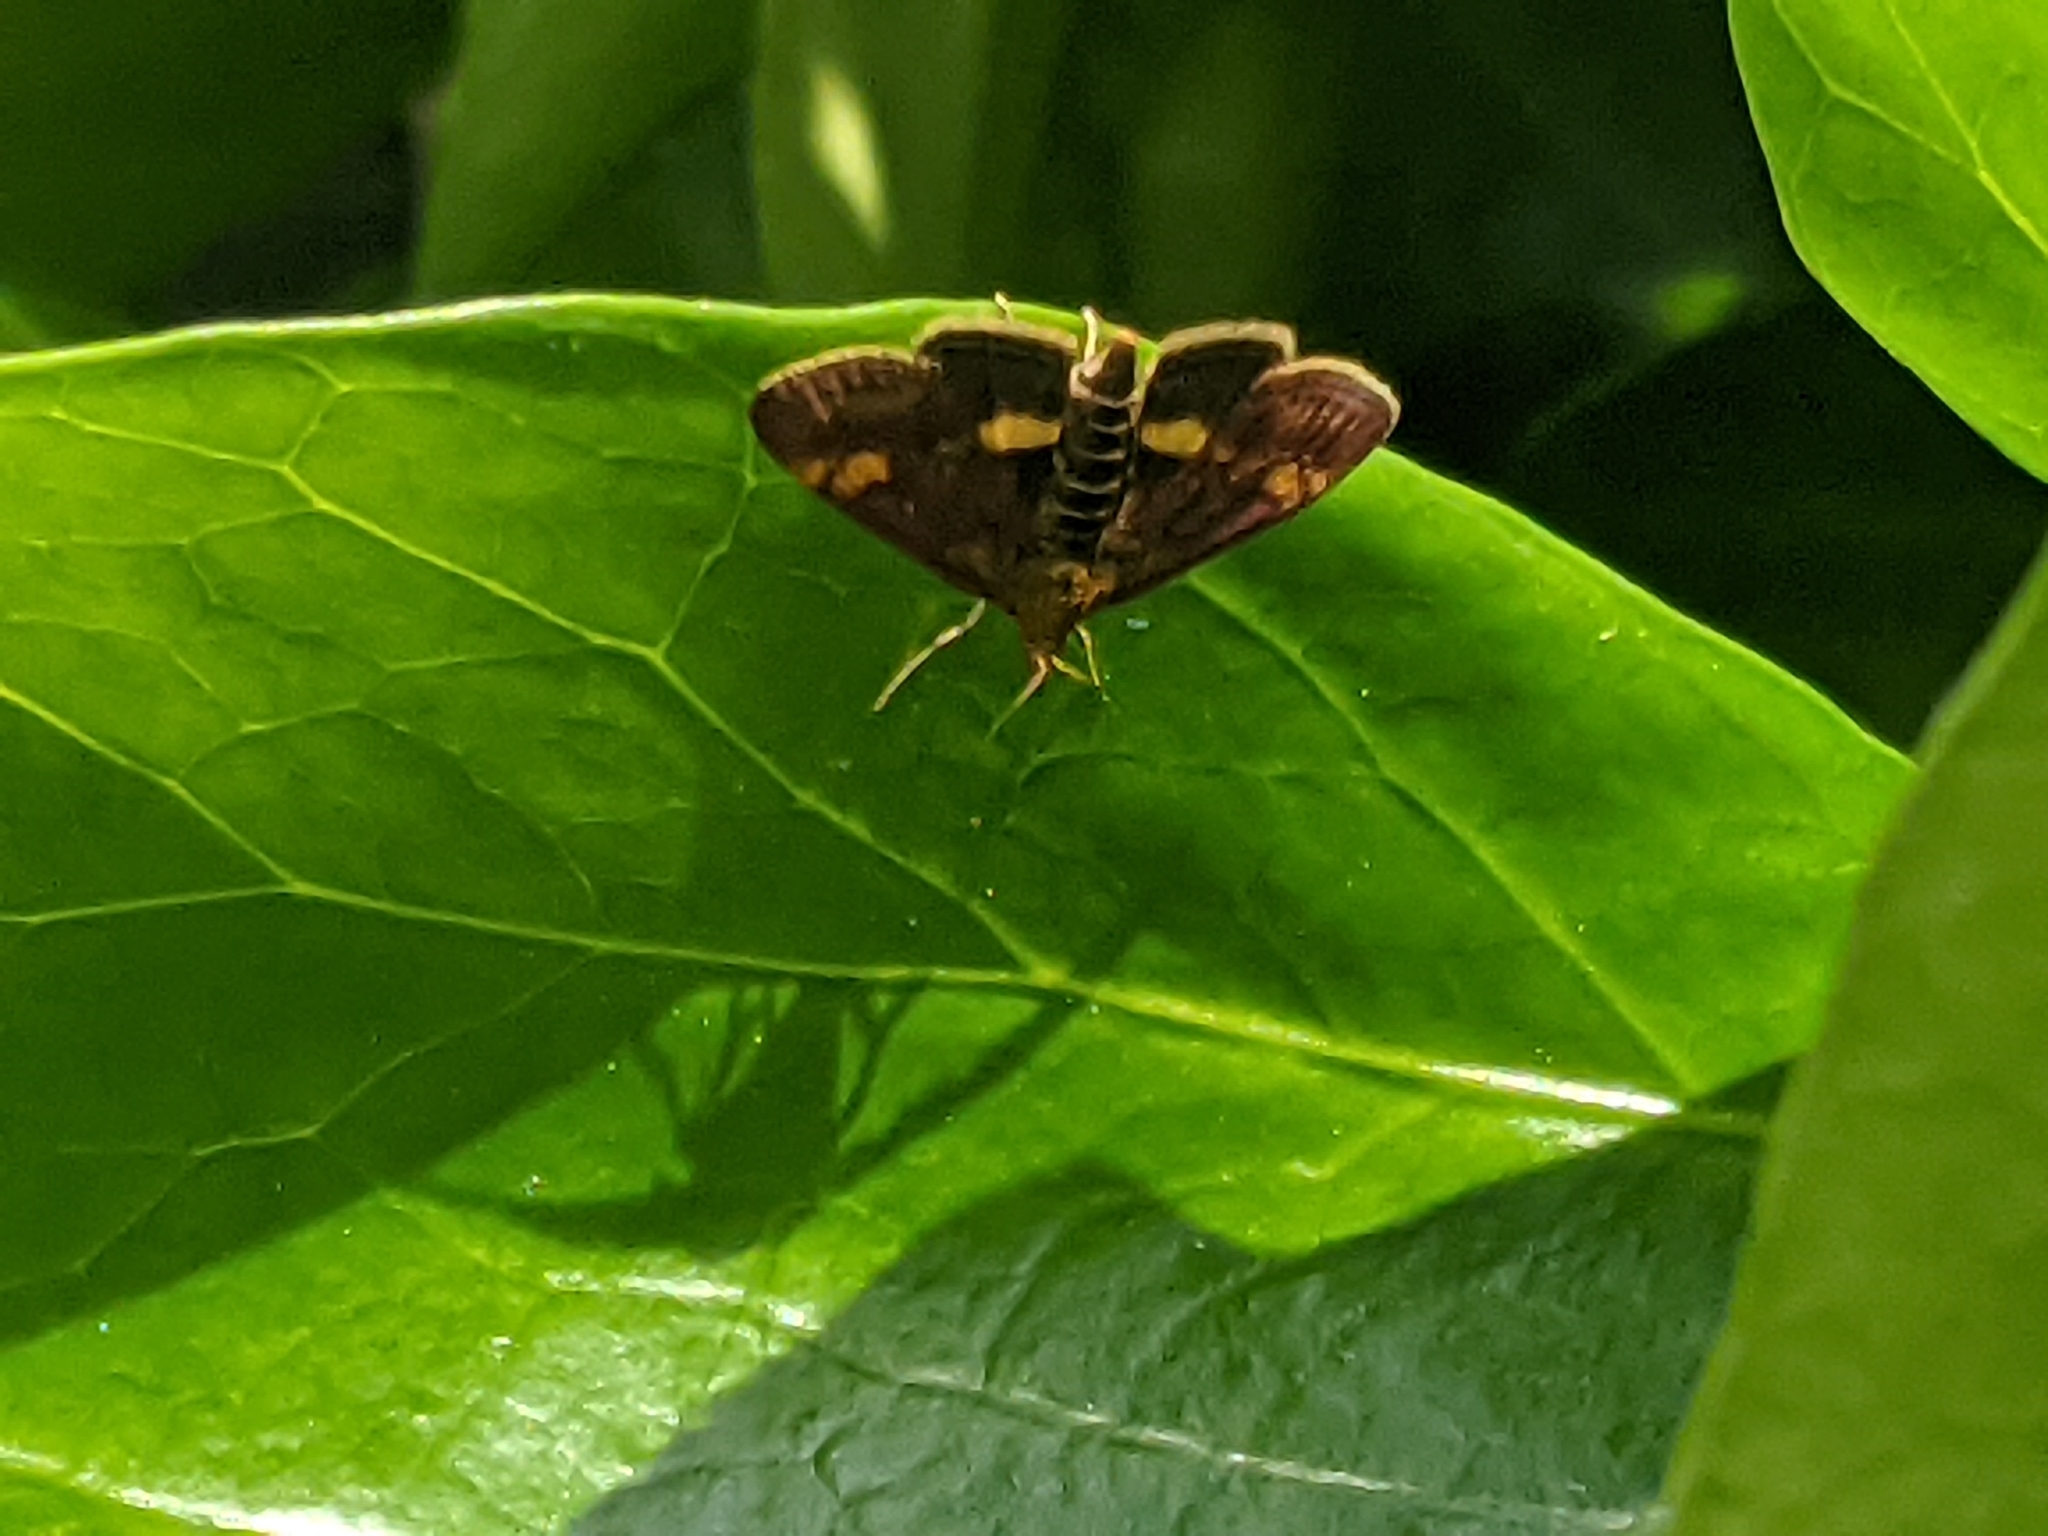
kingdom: Animalia
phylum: Arthropoda
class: Insecta
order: Lepidoptera
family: Crambidae
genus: Pyrausta
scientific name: Pyrausta aurata
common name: Small purple & gold
